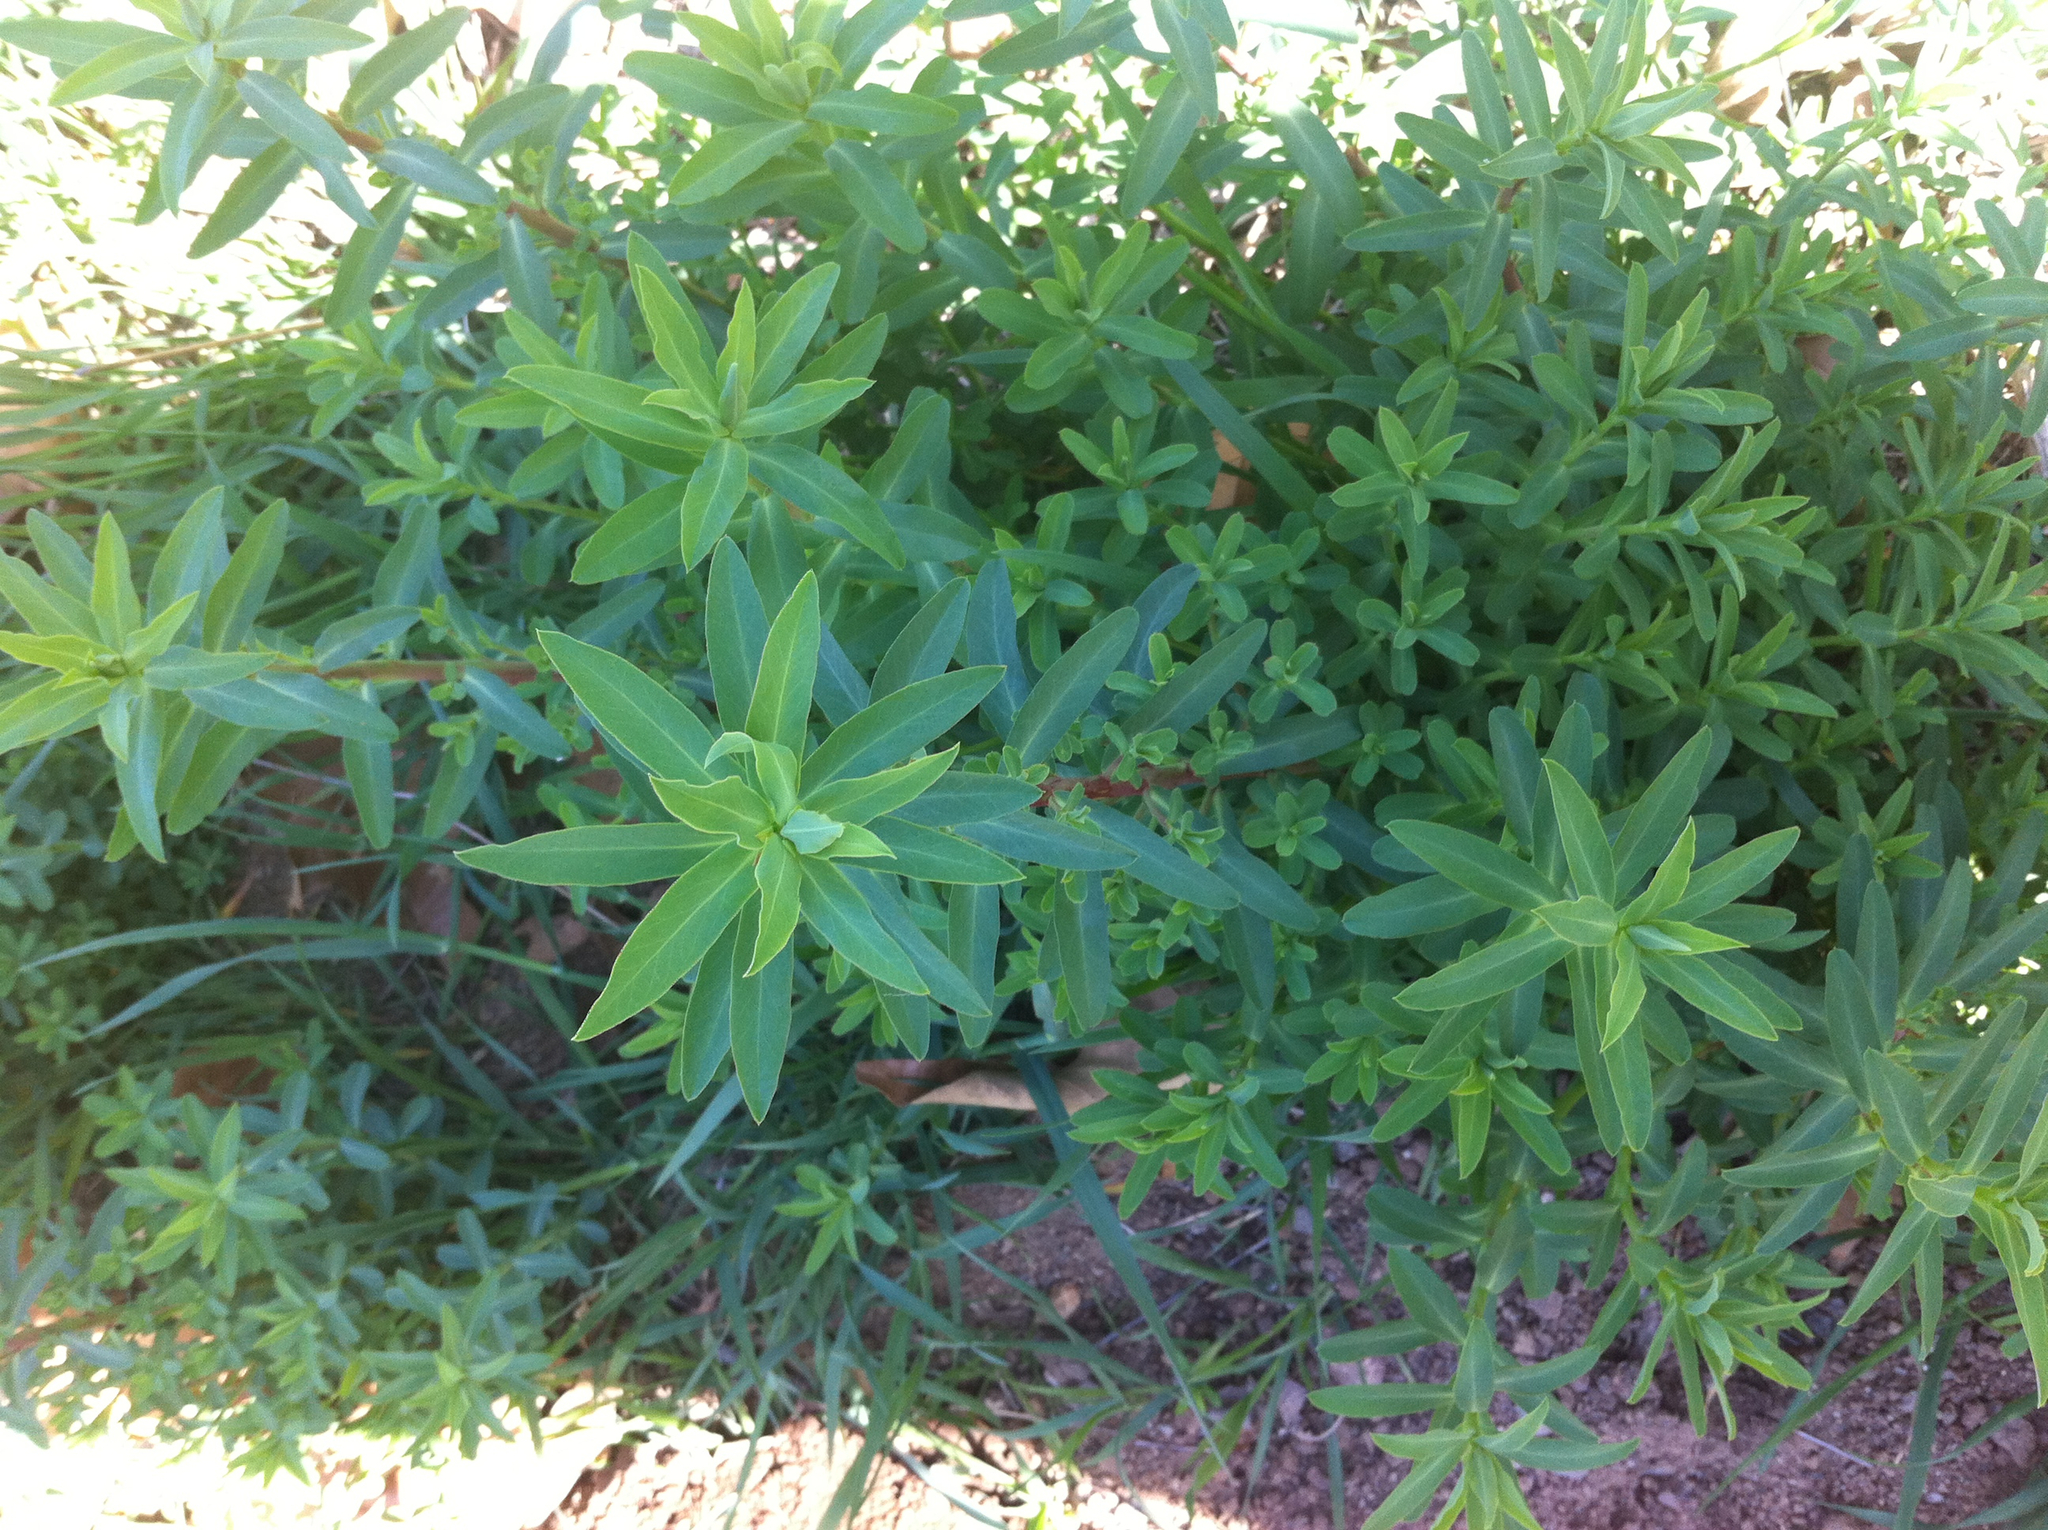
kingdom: Plantae
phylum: Tracheophyta
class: Magnoliopsida
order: Malpighiales
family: Euphorbiaceae
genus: Euphorbia
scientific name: Euphorbia terracina
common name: Geraldton carnation weed
